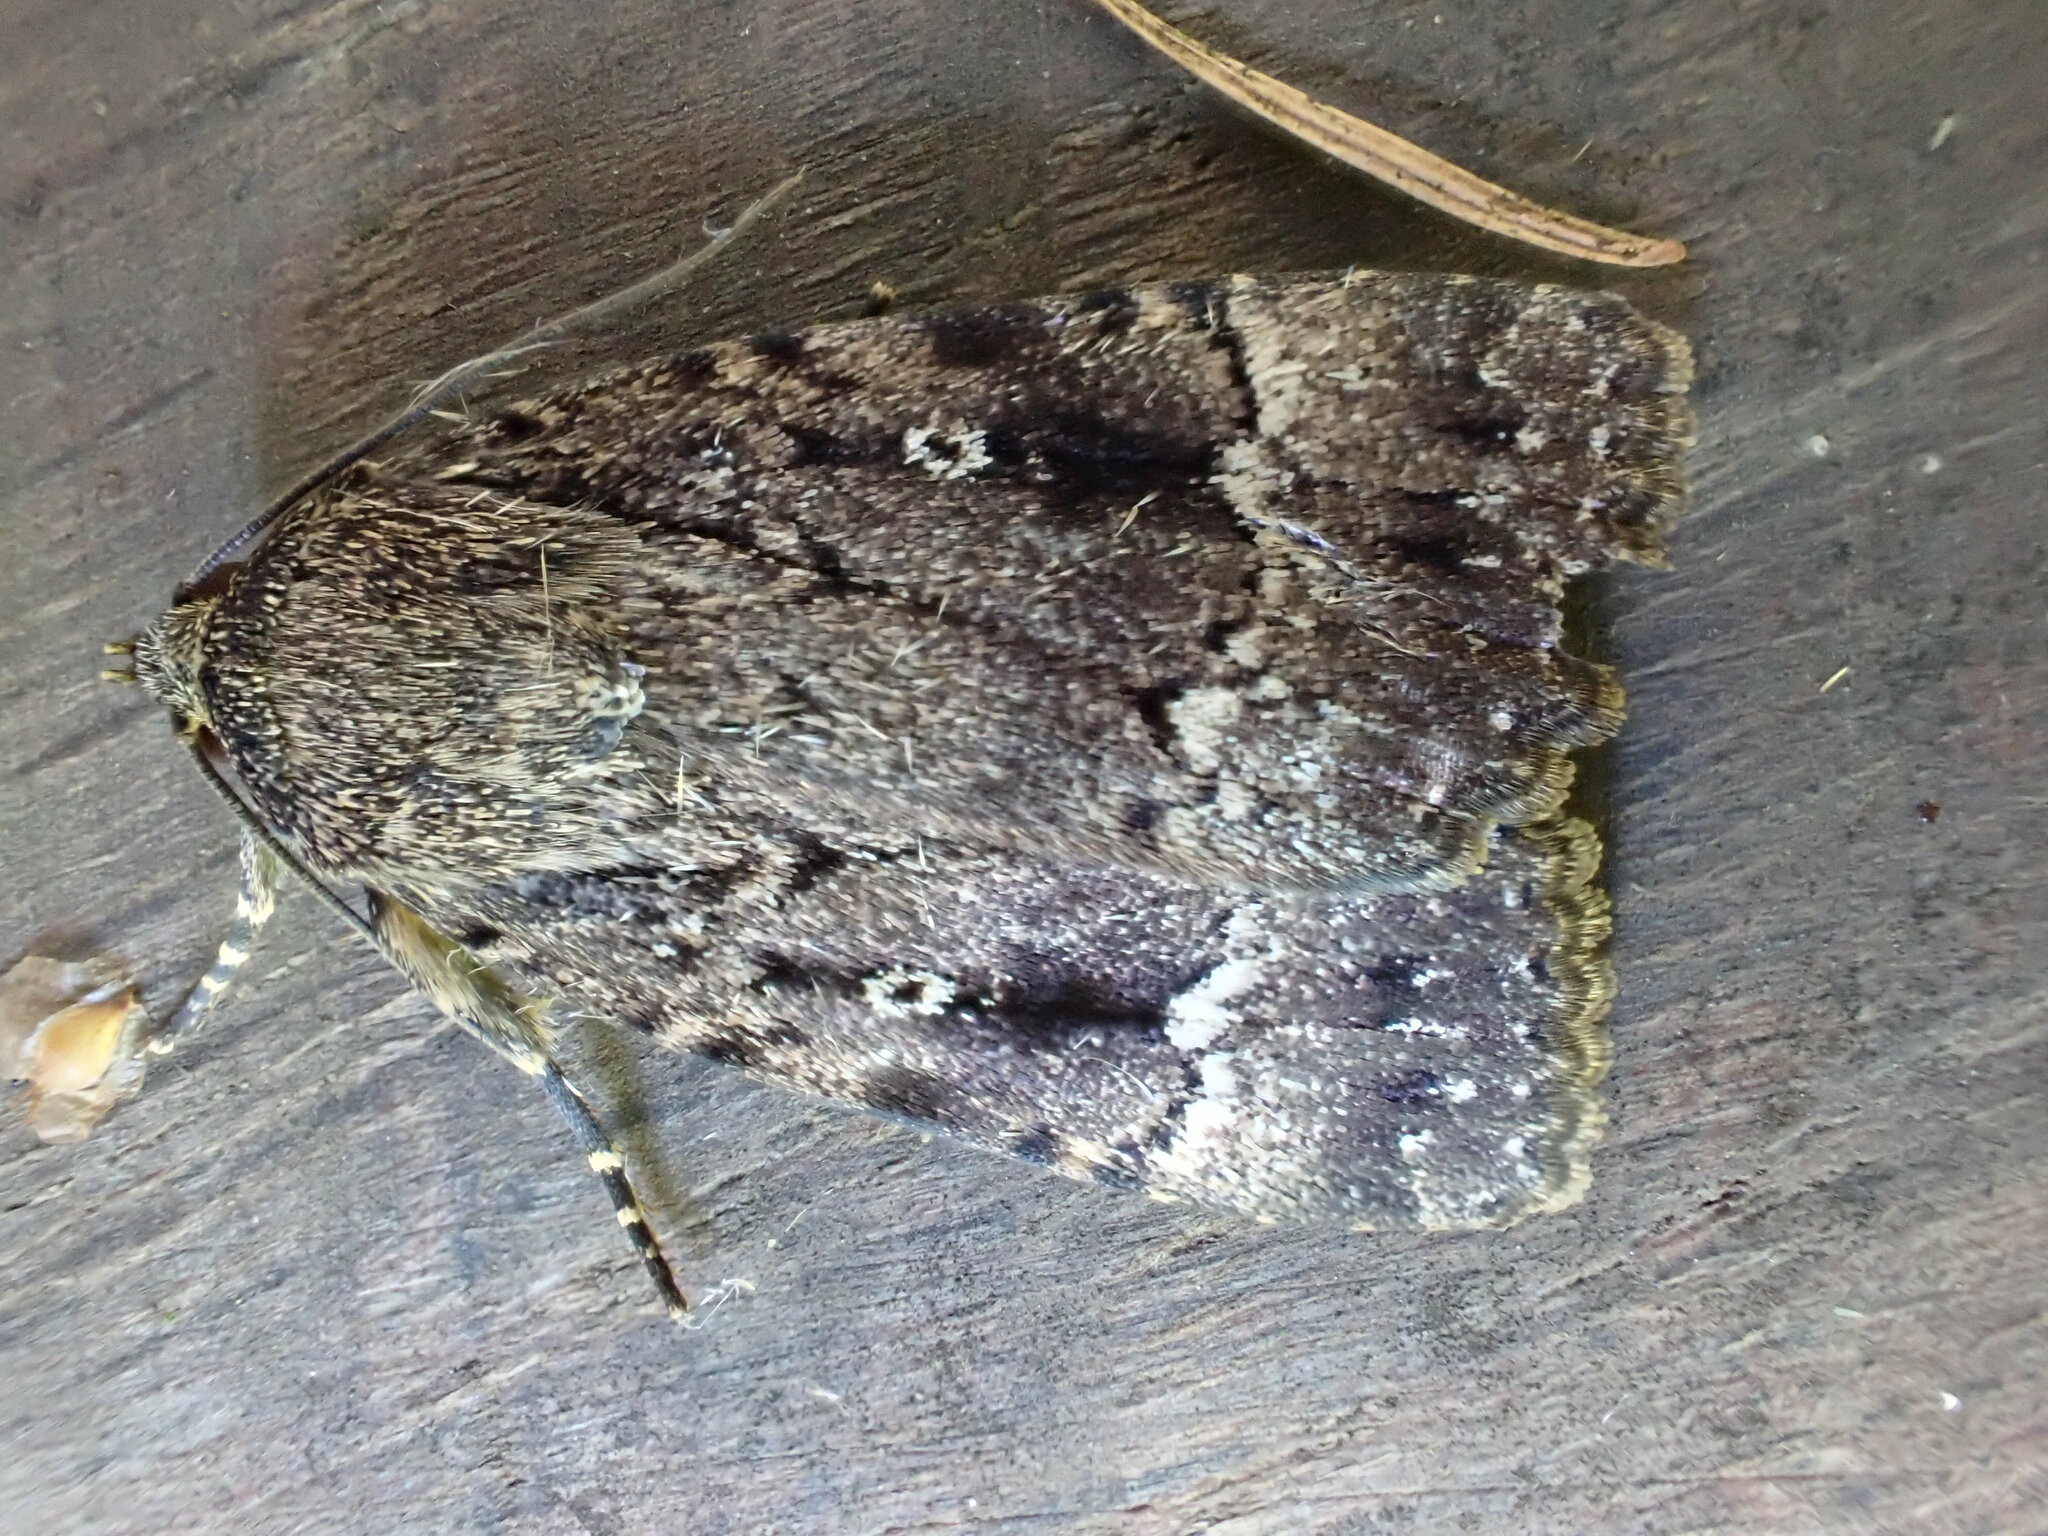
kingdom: Animalia
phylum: Arthropoda
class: Insecta
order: Lepidoptera
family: Noctuidae
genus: Amphipyra
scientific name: Amphipyra pyramidea
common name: Copper underwing
